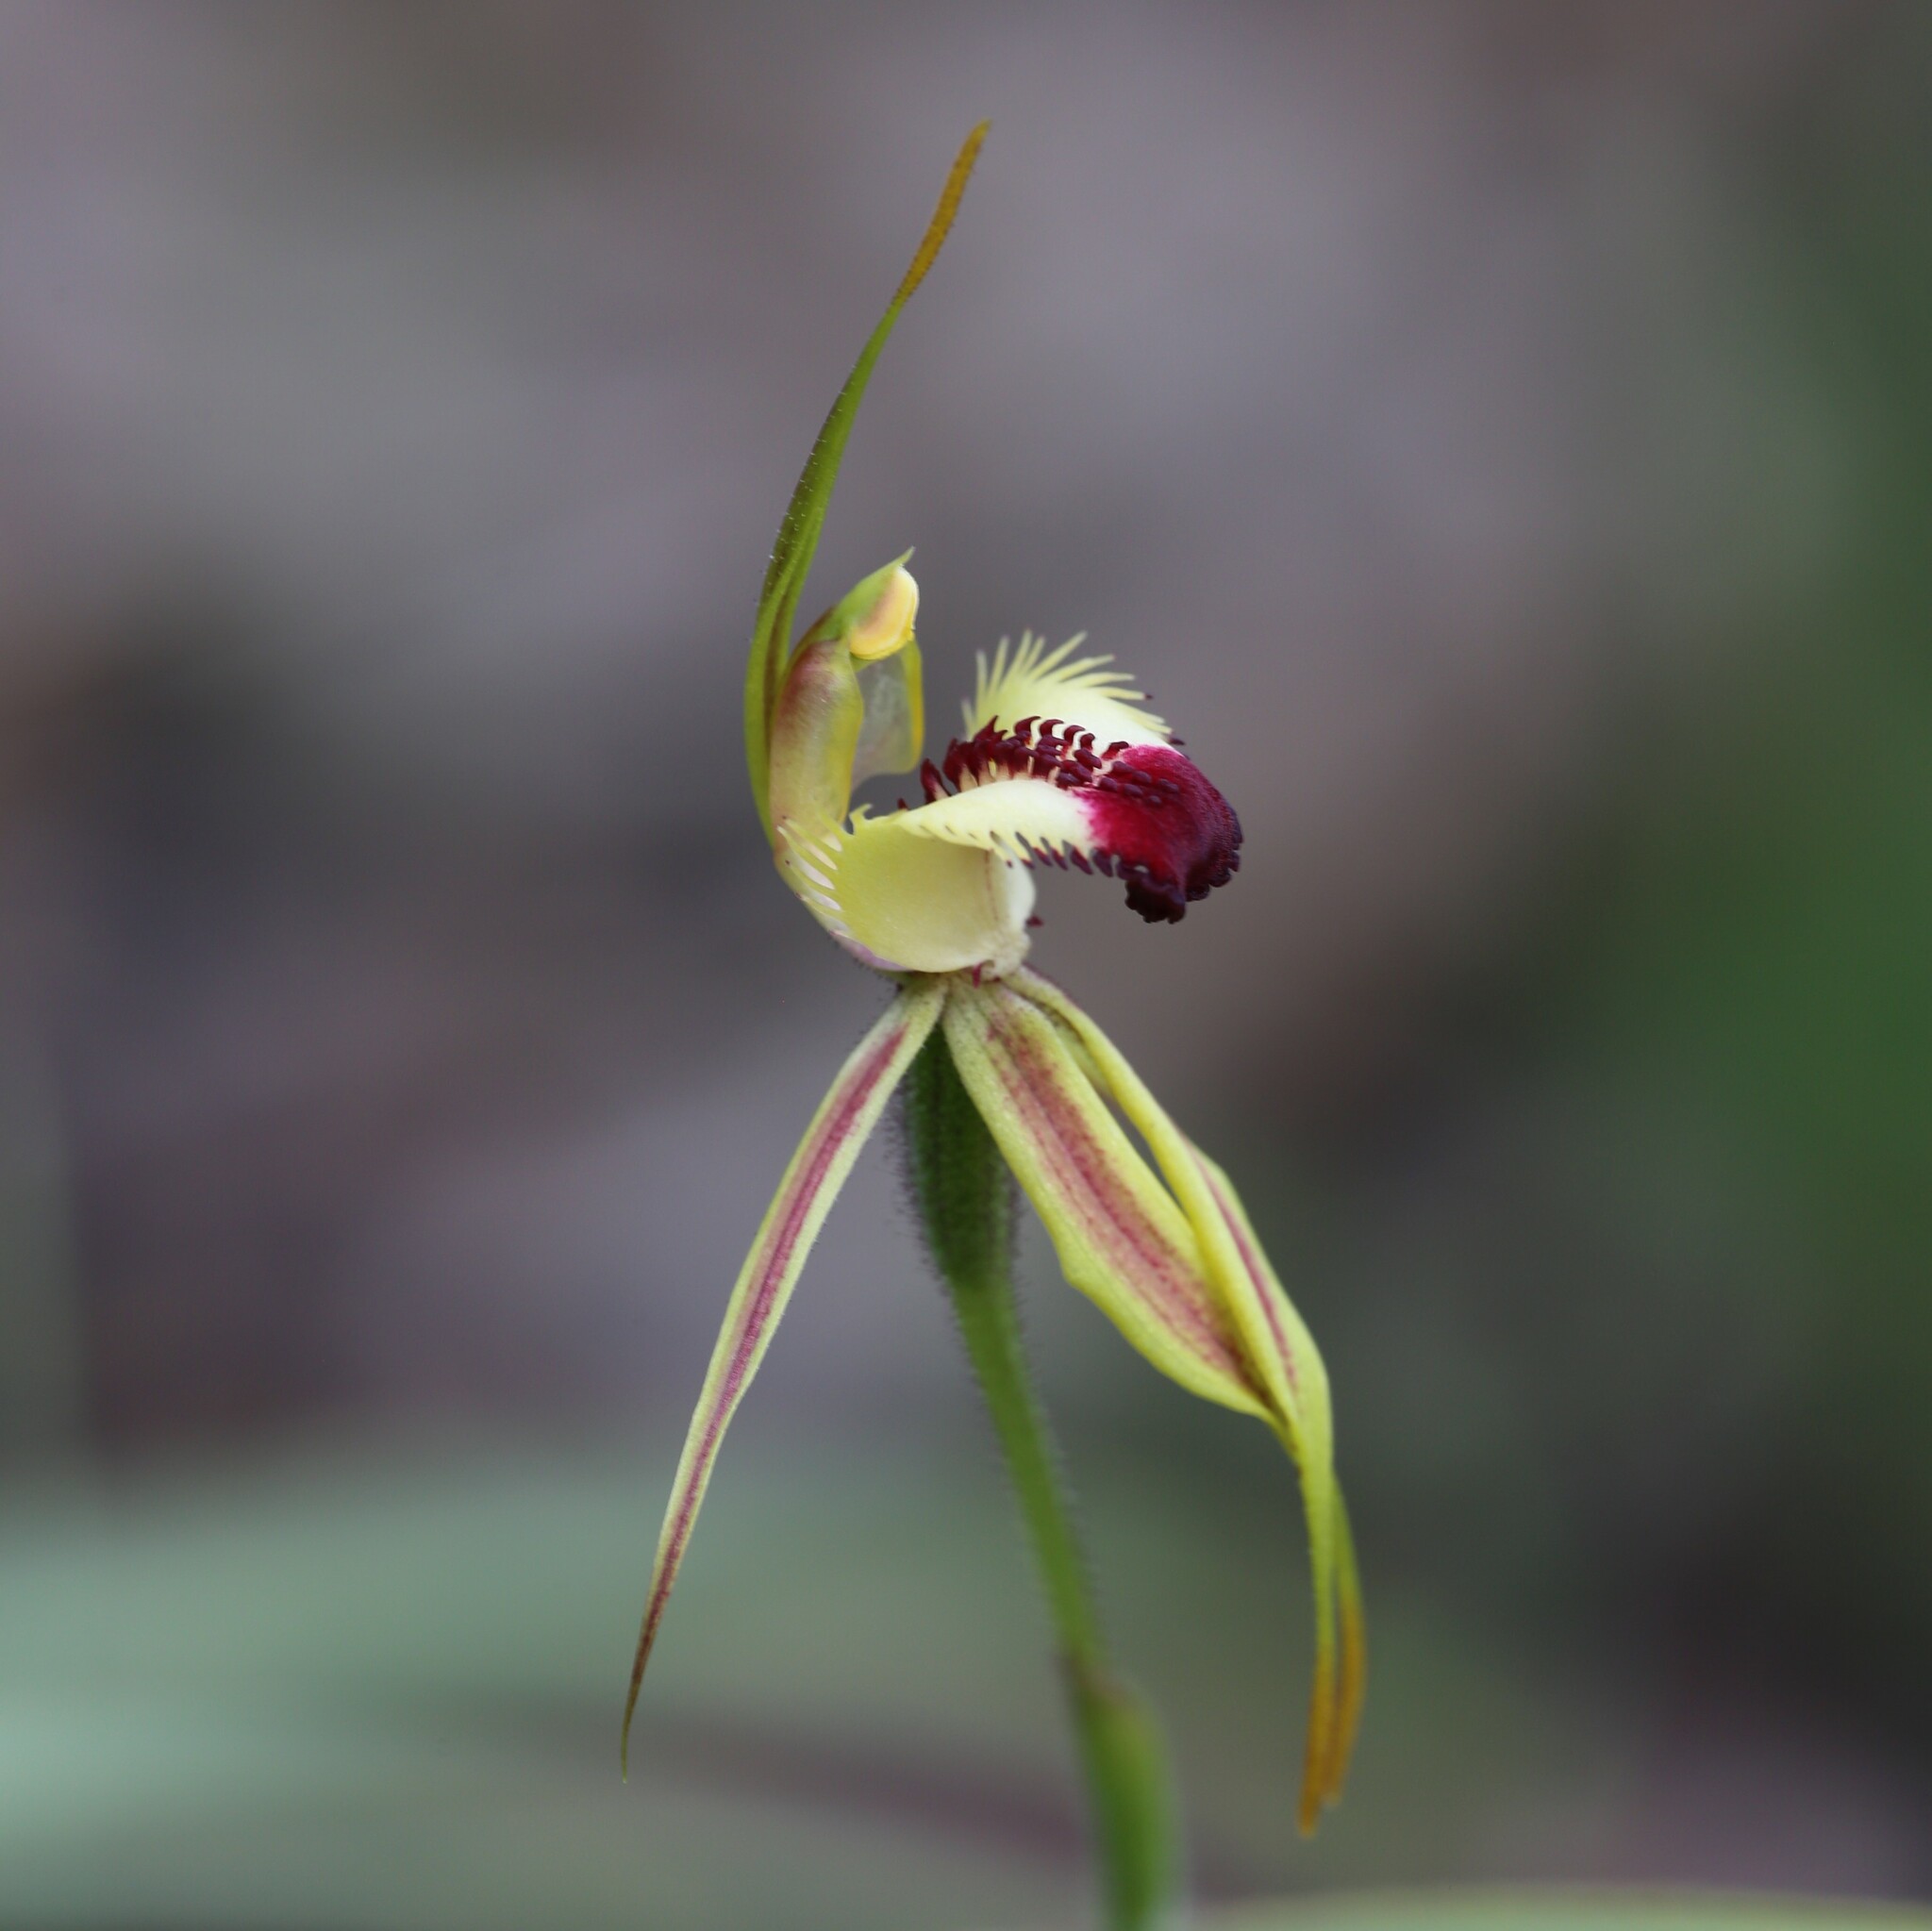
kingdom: Plantae
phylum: Tracheophyta
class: Liliopsida
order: Asparagales
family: Orchidaceae
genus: Caladenia
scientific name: Caladenia rhomboidiformis
